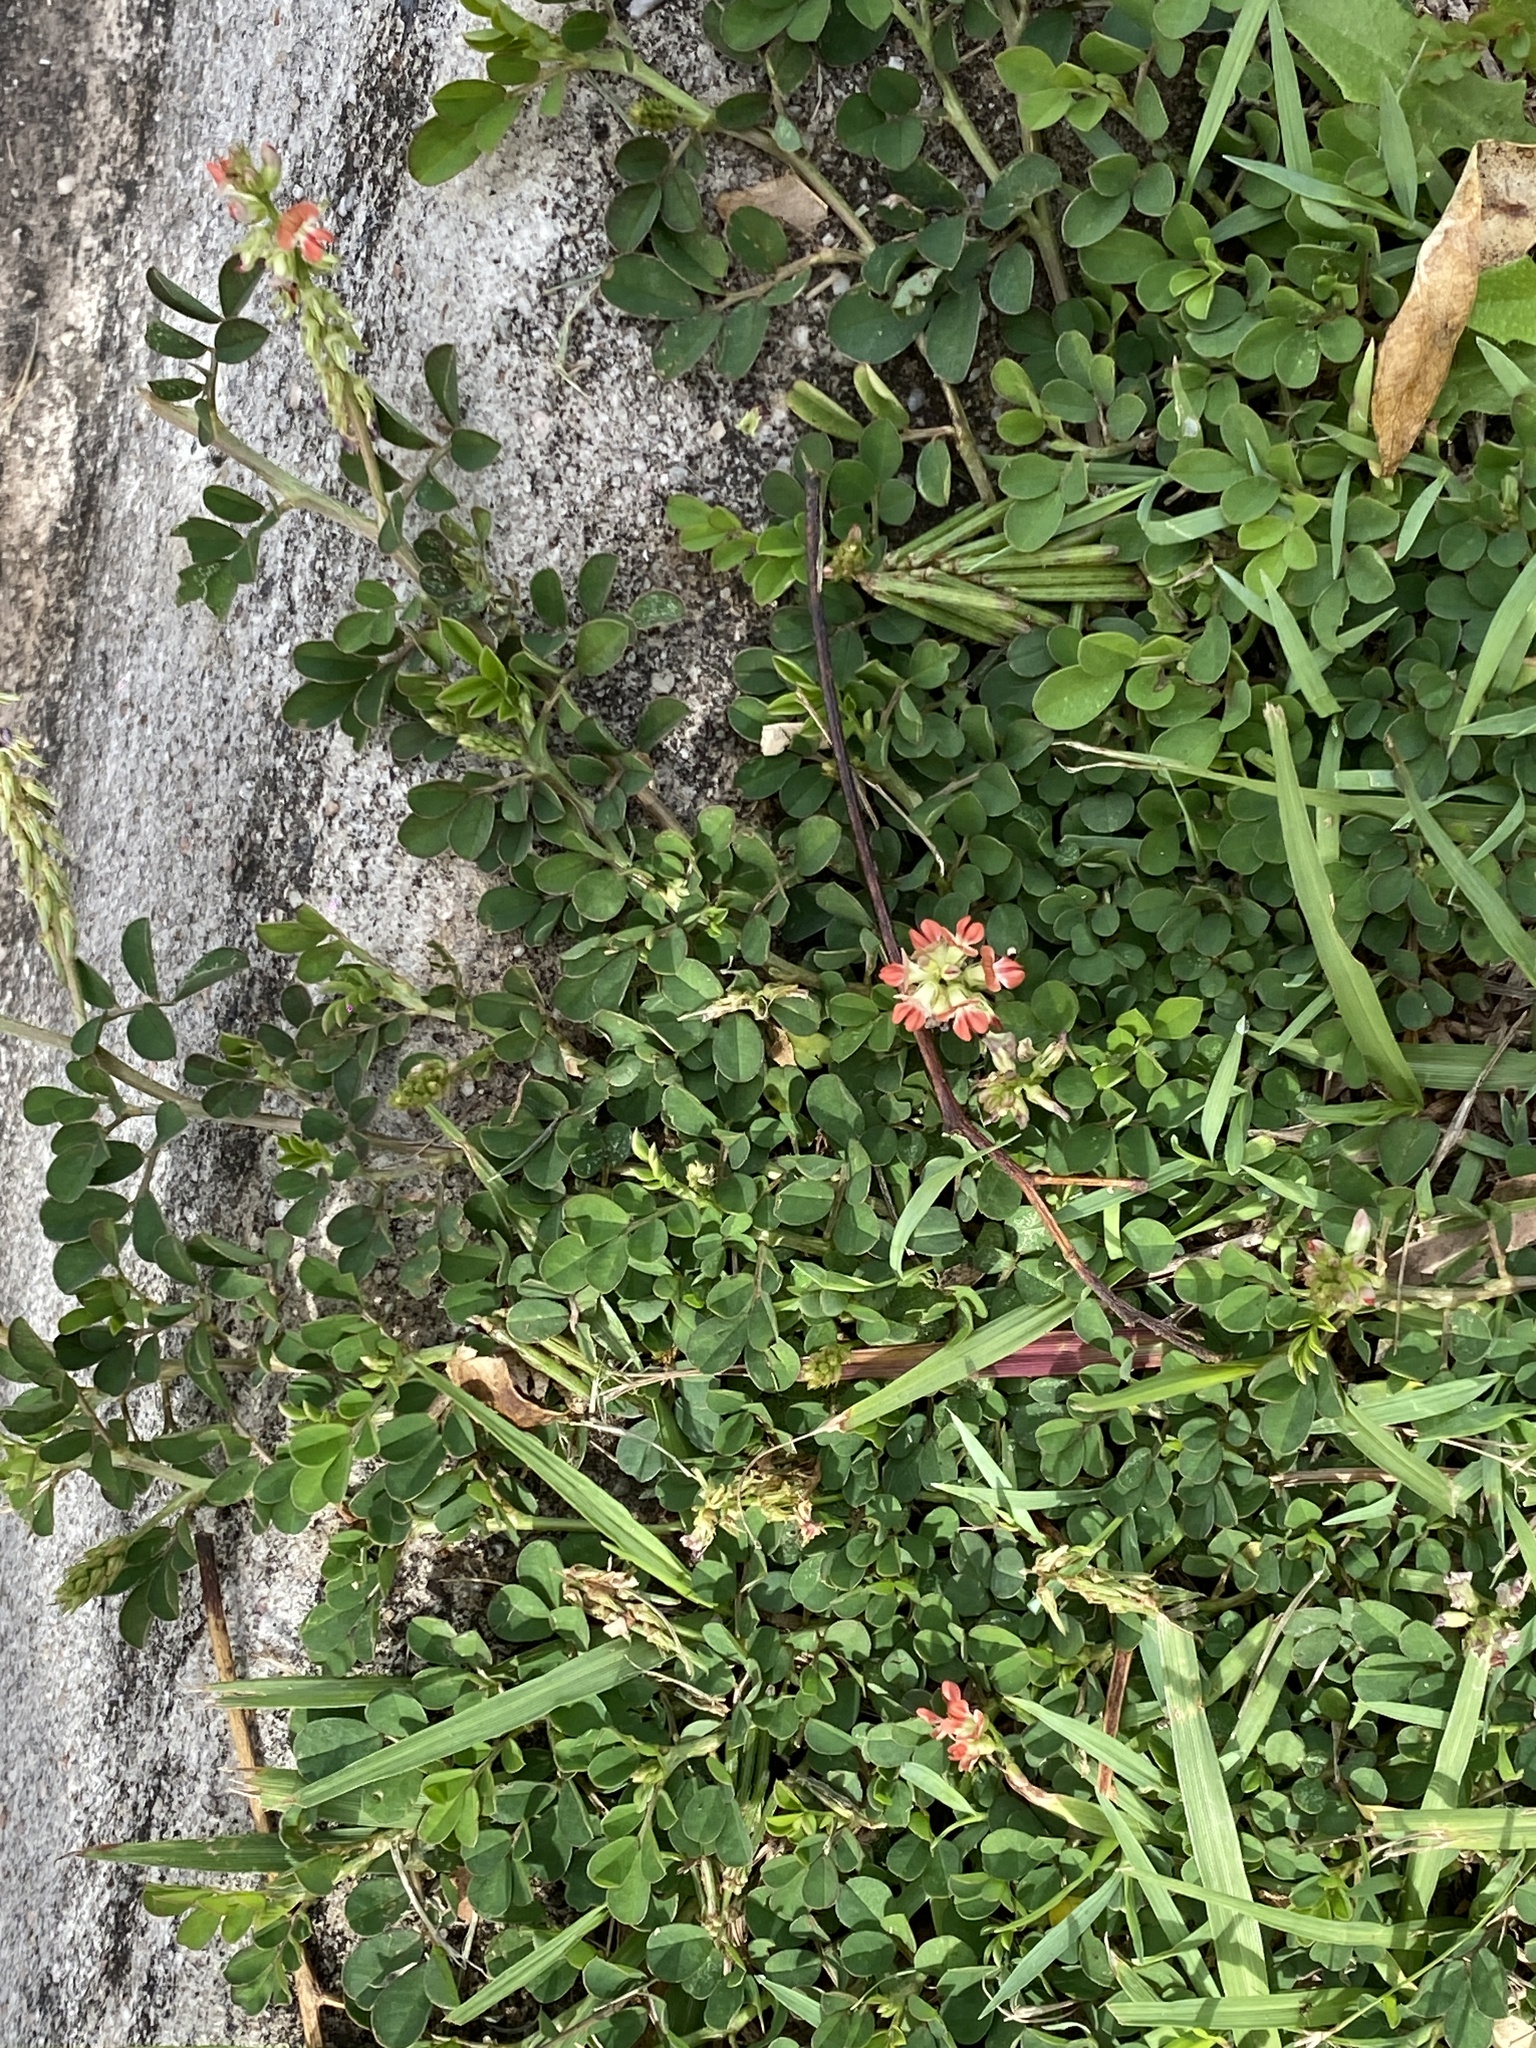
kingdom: Plantae
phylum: Tracheophyta
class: Magnoliopsida
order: Fabales
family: Fabaceae
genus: Indigofera
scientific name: Indigofera spicata
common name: Creeping indigo
